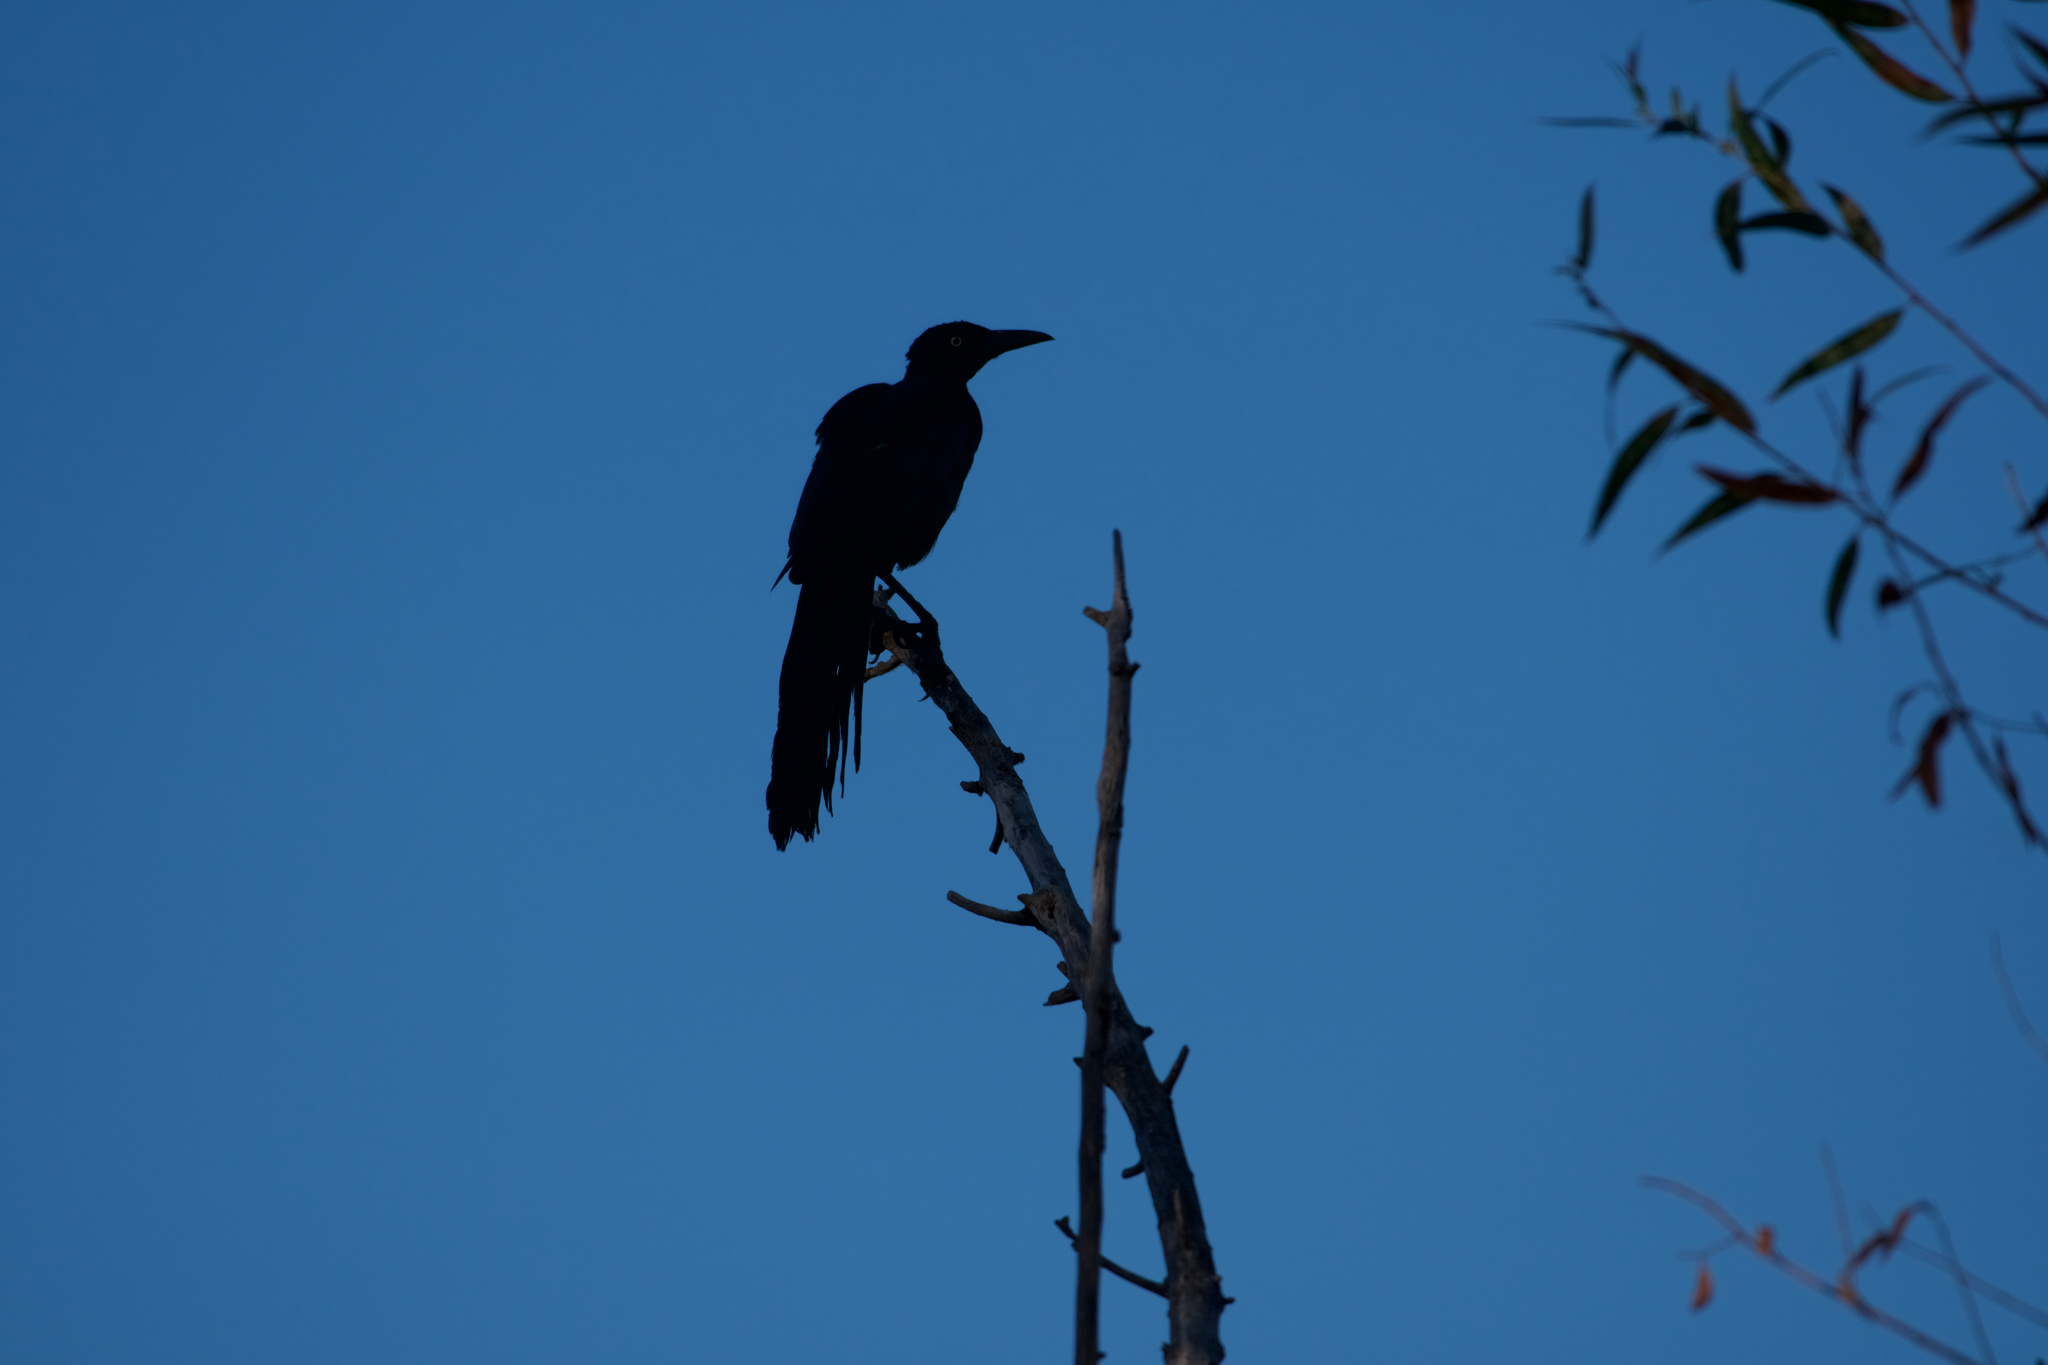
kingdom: Animalia
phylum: Chordata
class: Aves
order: Passeriformes
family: Icteridae
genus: Quiscalus
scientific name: Quiscalus mexicanus
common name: Great-tailed grackle
